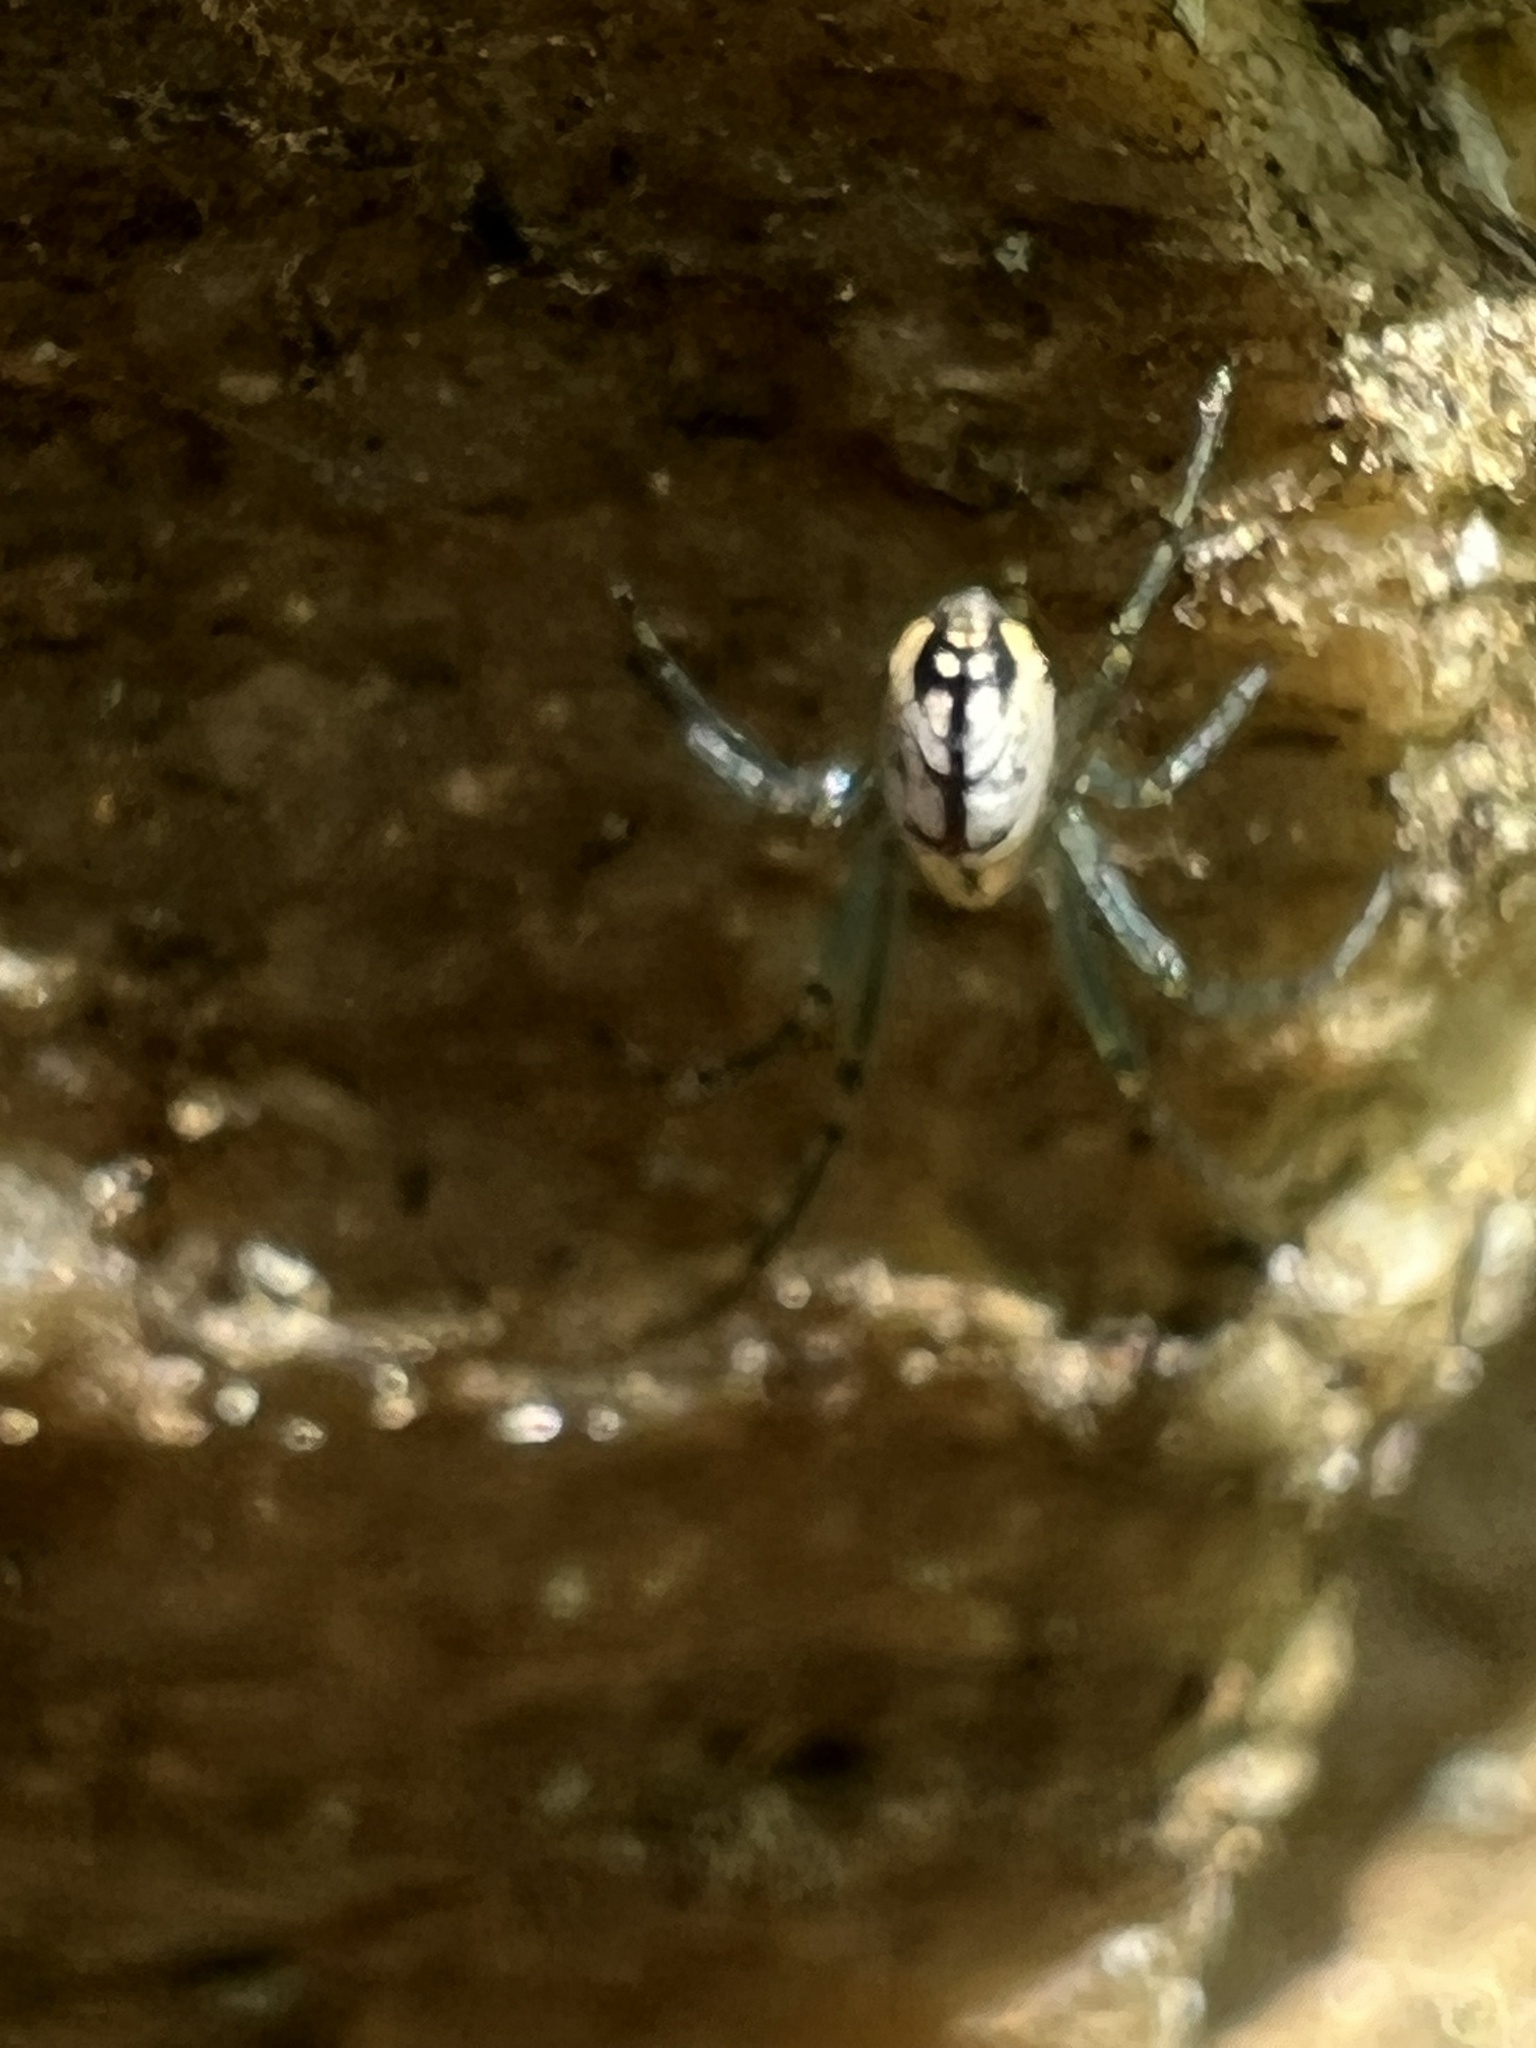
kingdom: Animalia
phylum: Arthropoda
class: Arachnida
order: Araneae
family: Tetragnathidae
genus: Leucauge
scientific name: Leucauge venusta
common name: Longjawed orb weavers
